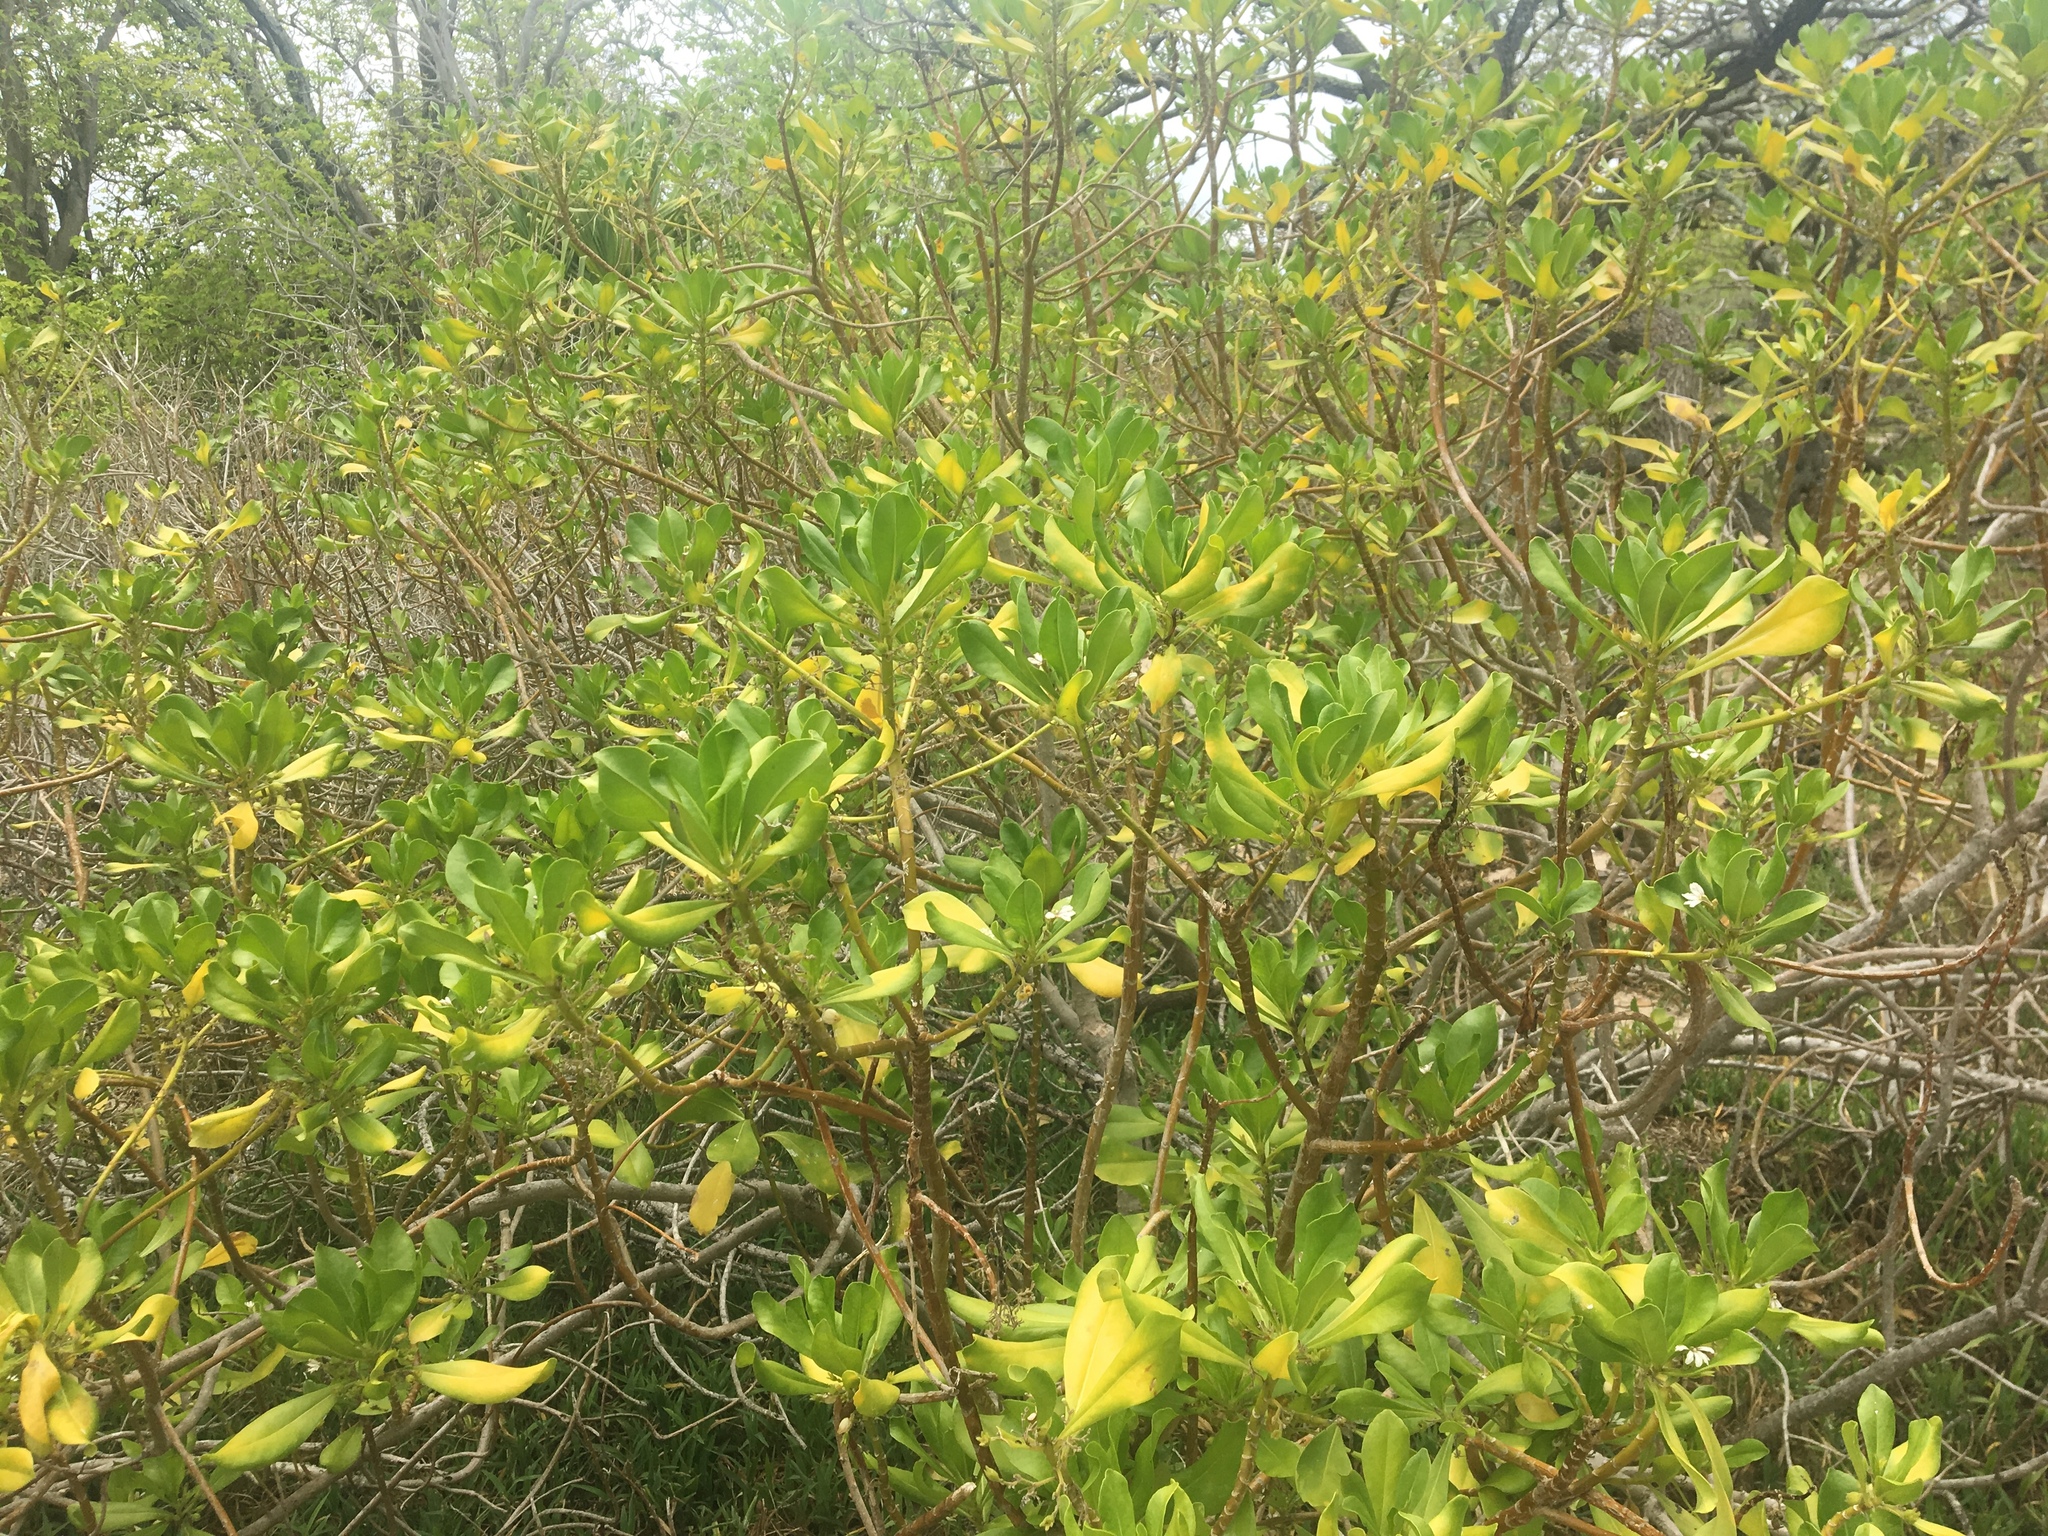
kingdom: Plantae
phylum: Tracheophyta
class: Magnoliopsida
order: Asterales
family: Goodeniaceae
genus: Scaevola
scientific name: Scaevola taccada
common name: Sea lettucetree
